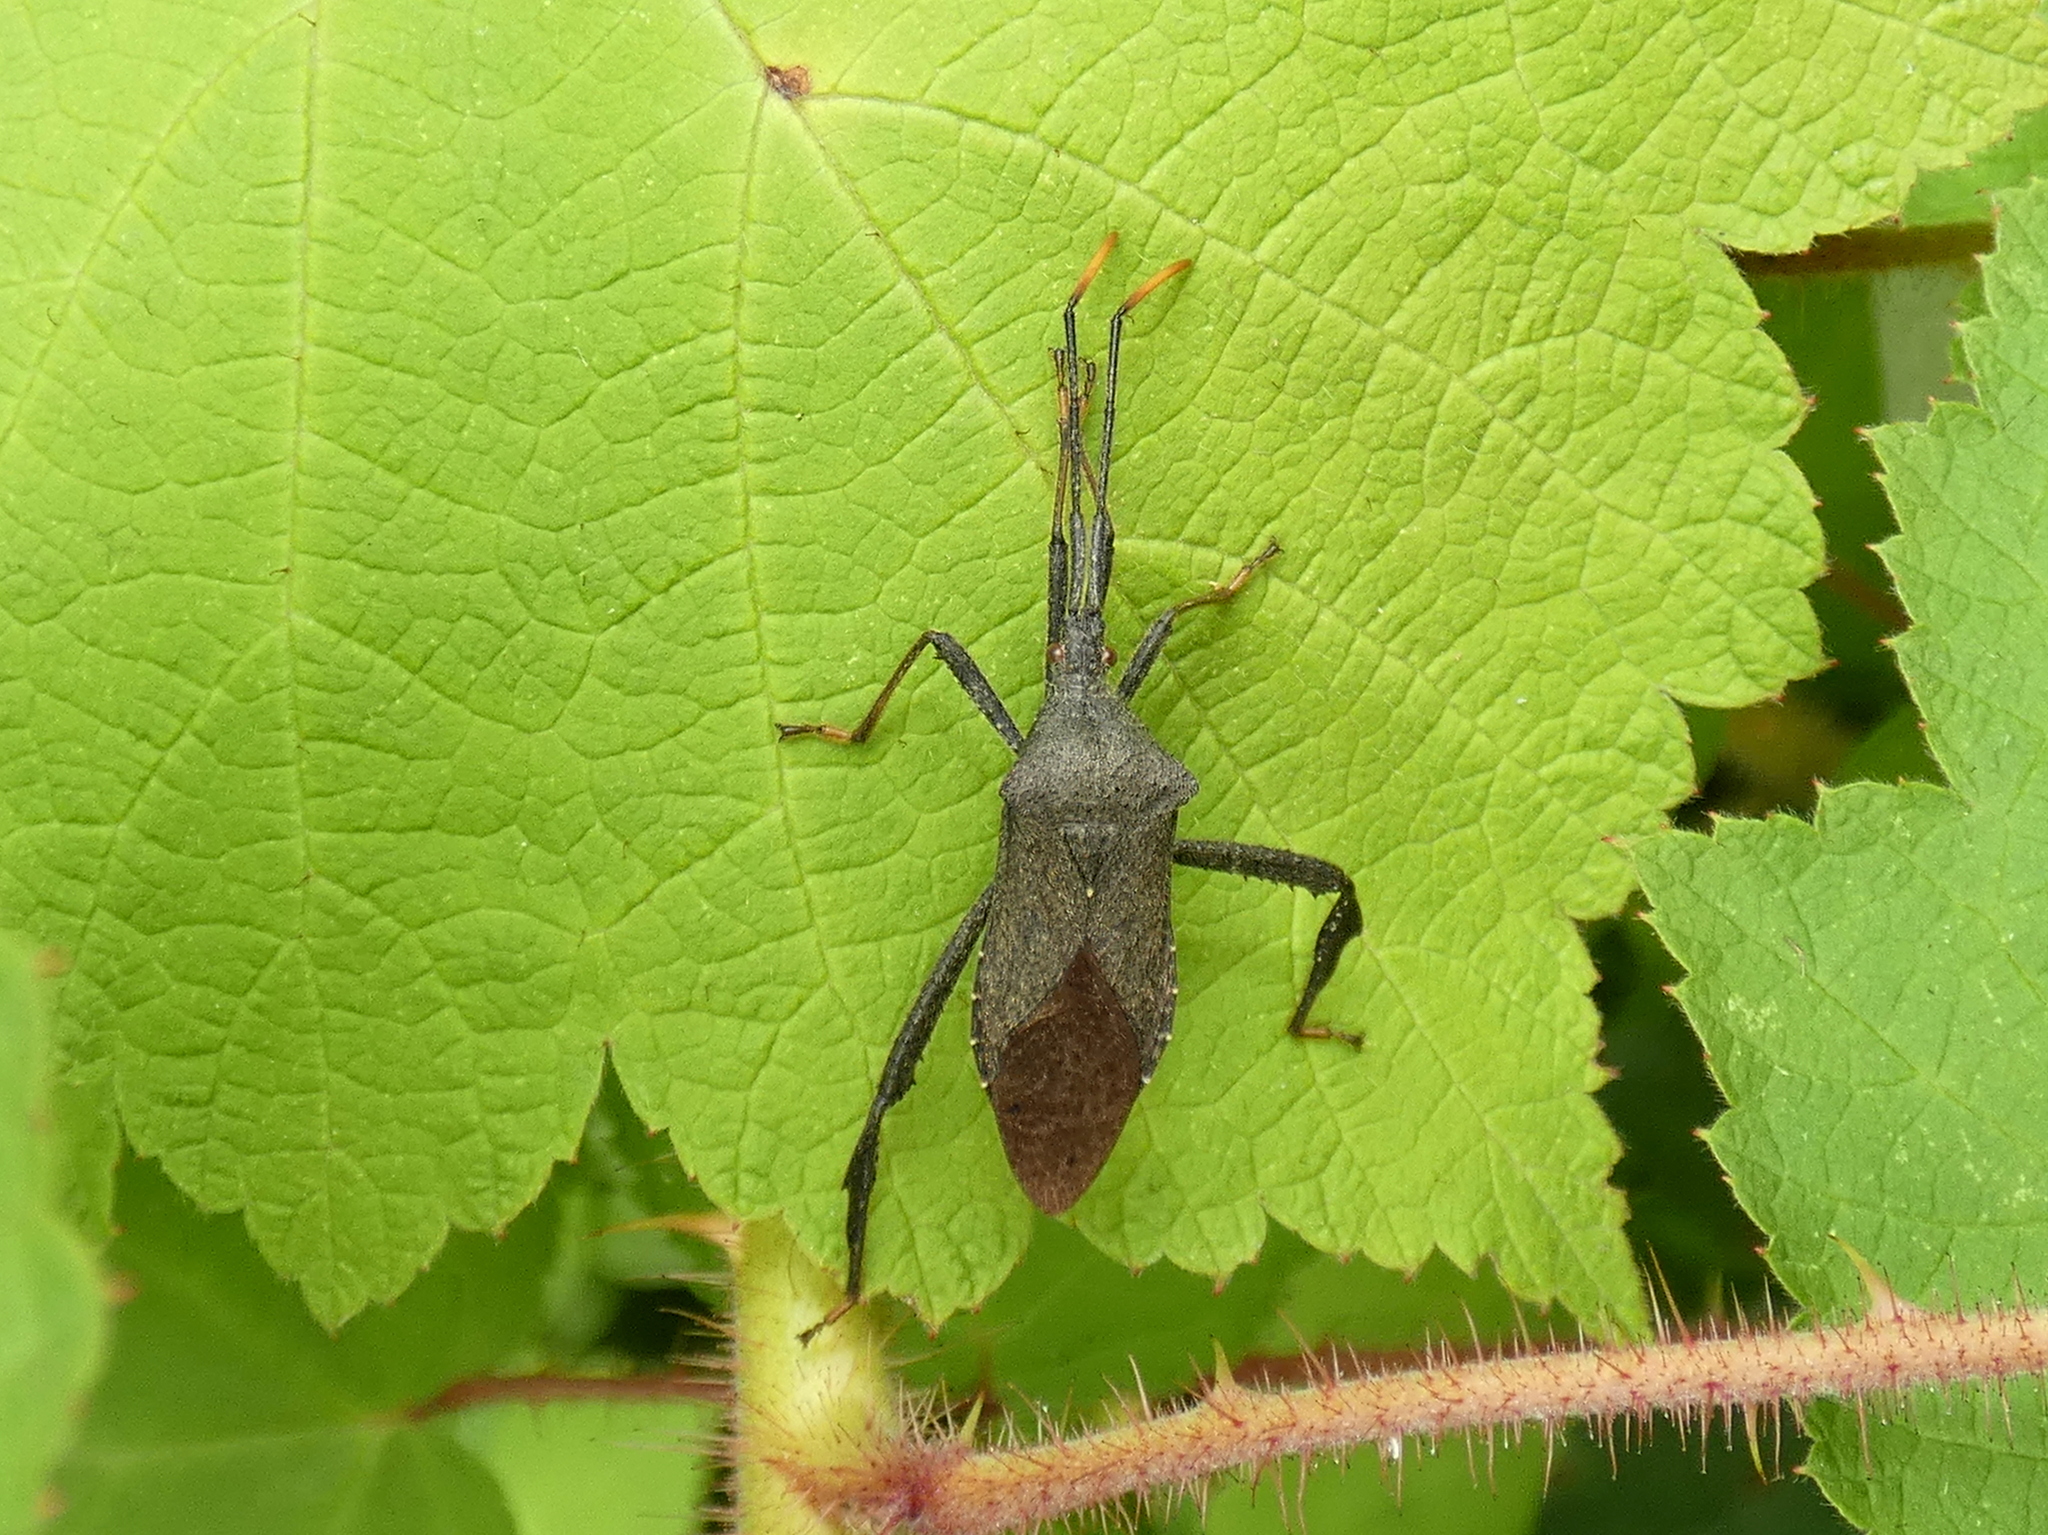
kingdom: Animalia
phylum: Arthropoda
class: Insecta
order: Hemiptera
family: Coreidae
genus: Acanthocephala
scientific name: Acanthocephala terminalis
